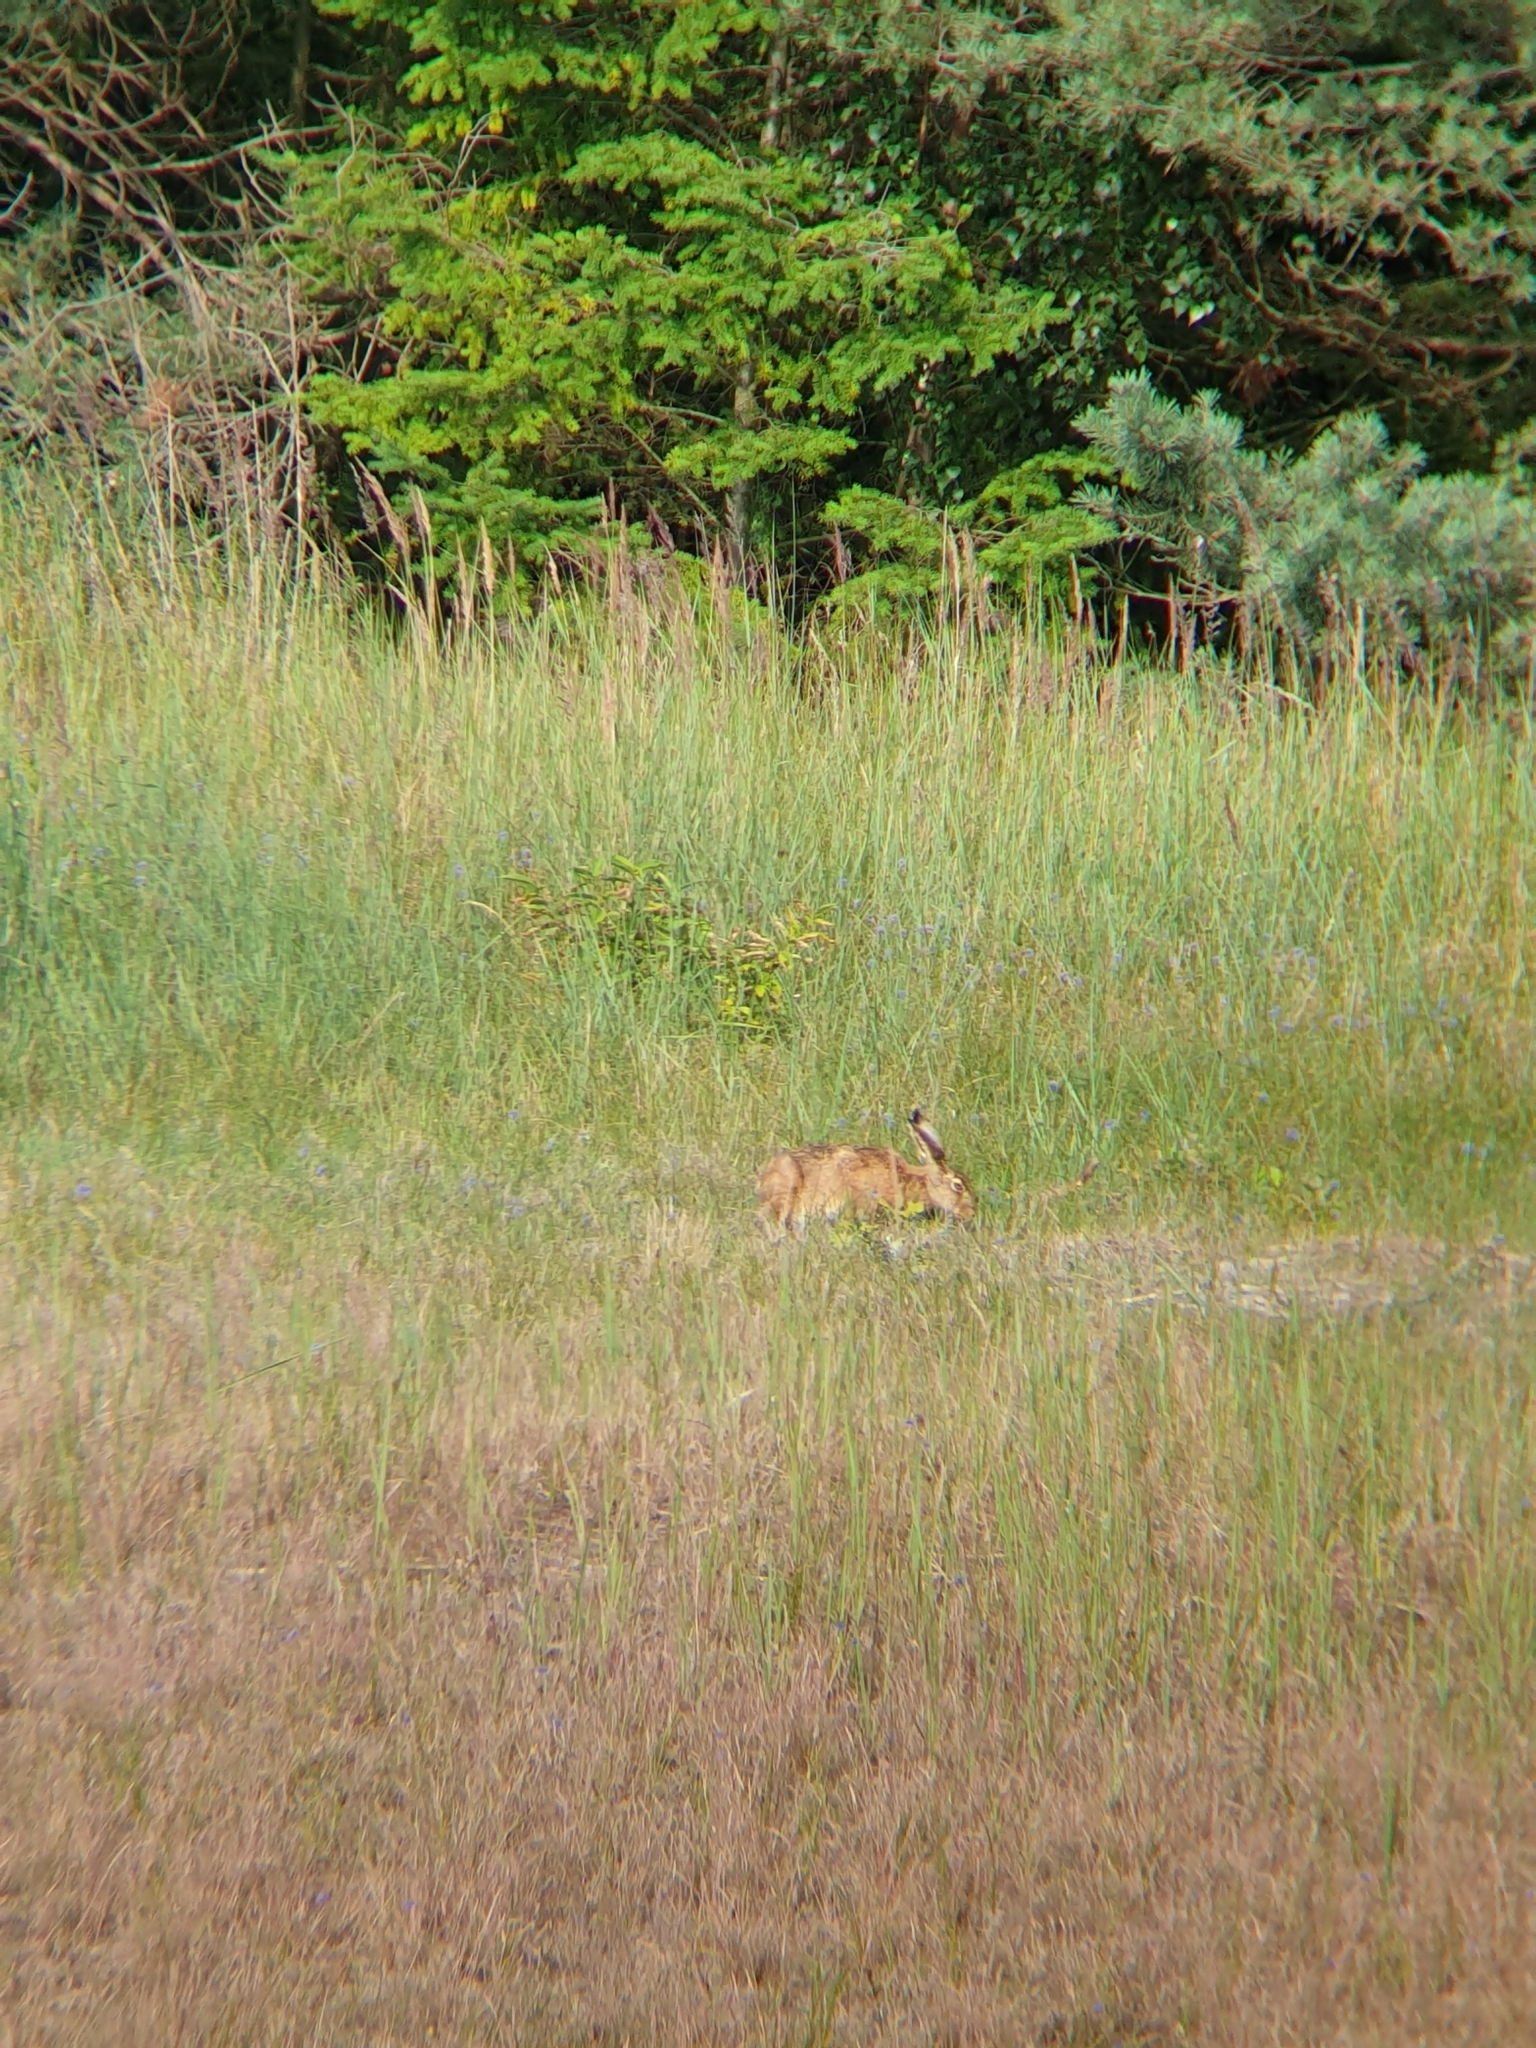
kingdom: Animalia
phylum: Chordata
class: Mammalia
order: Lagomorpha
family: Leporidae
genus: Lepus
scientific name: Lepus europaeus
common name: European hare
